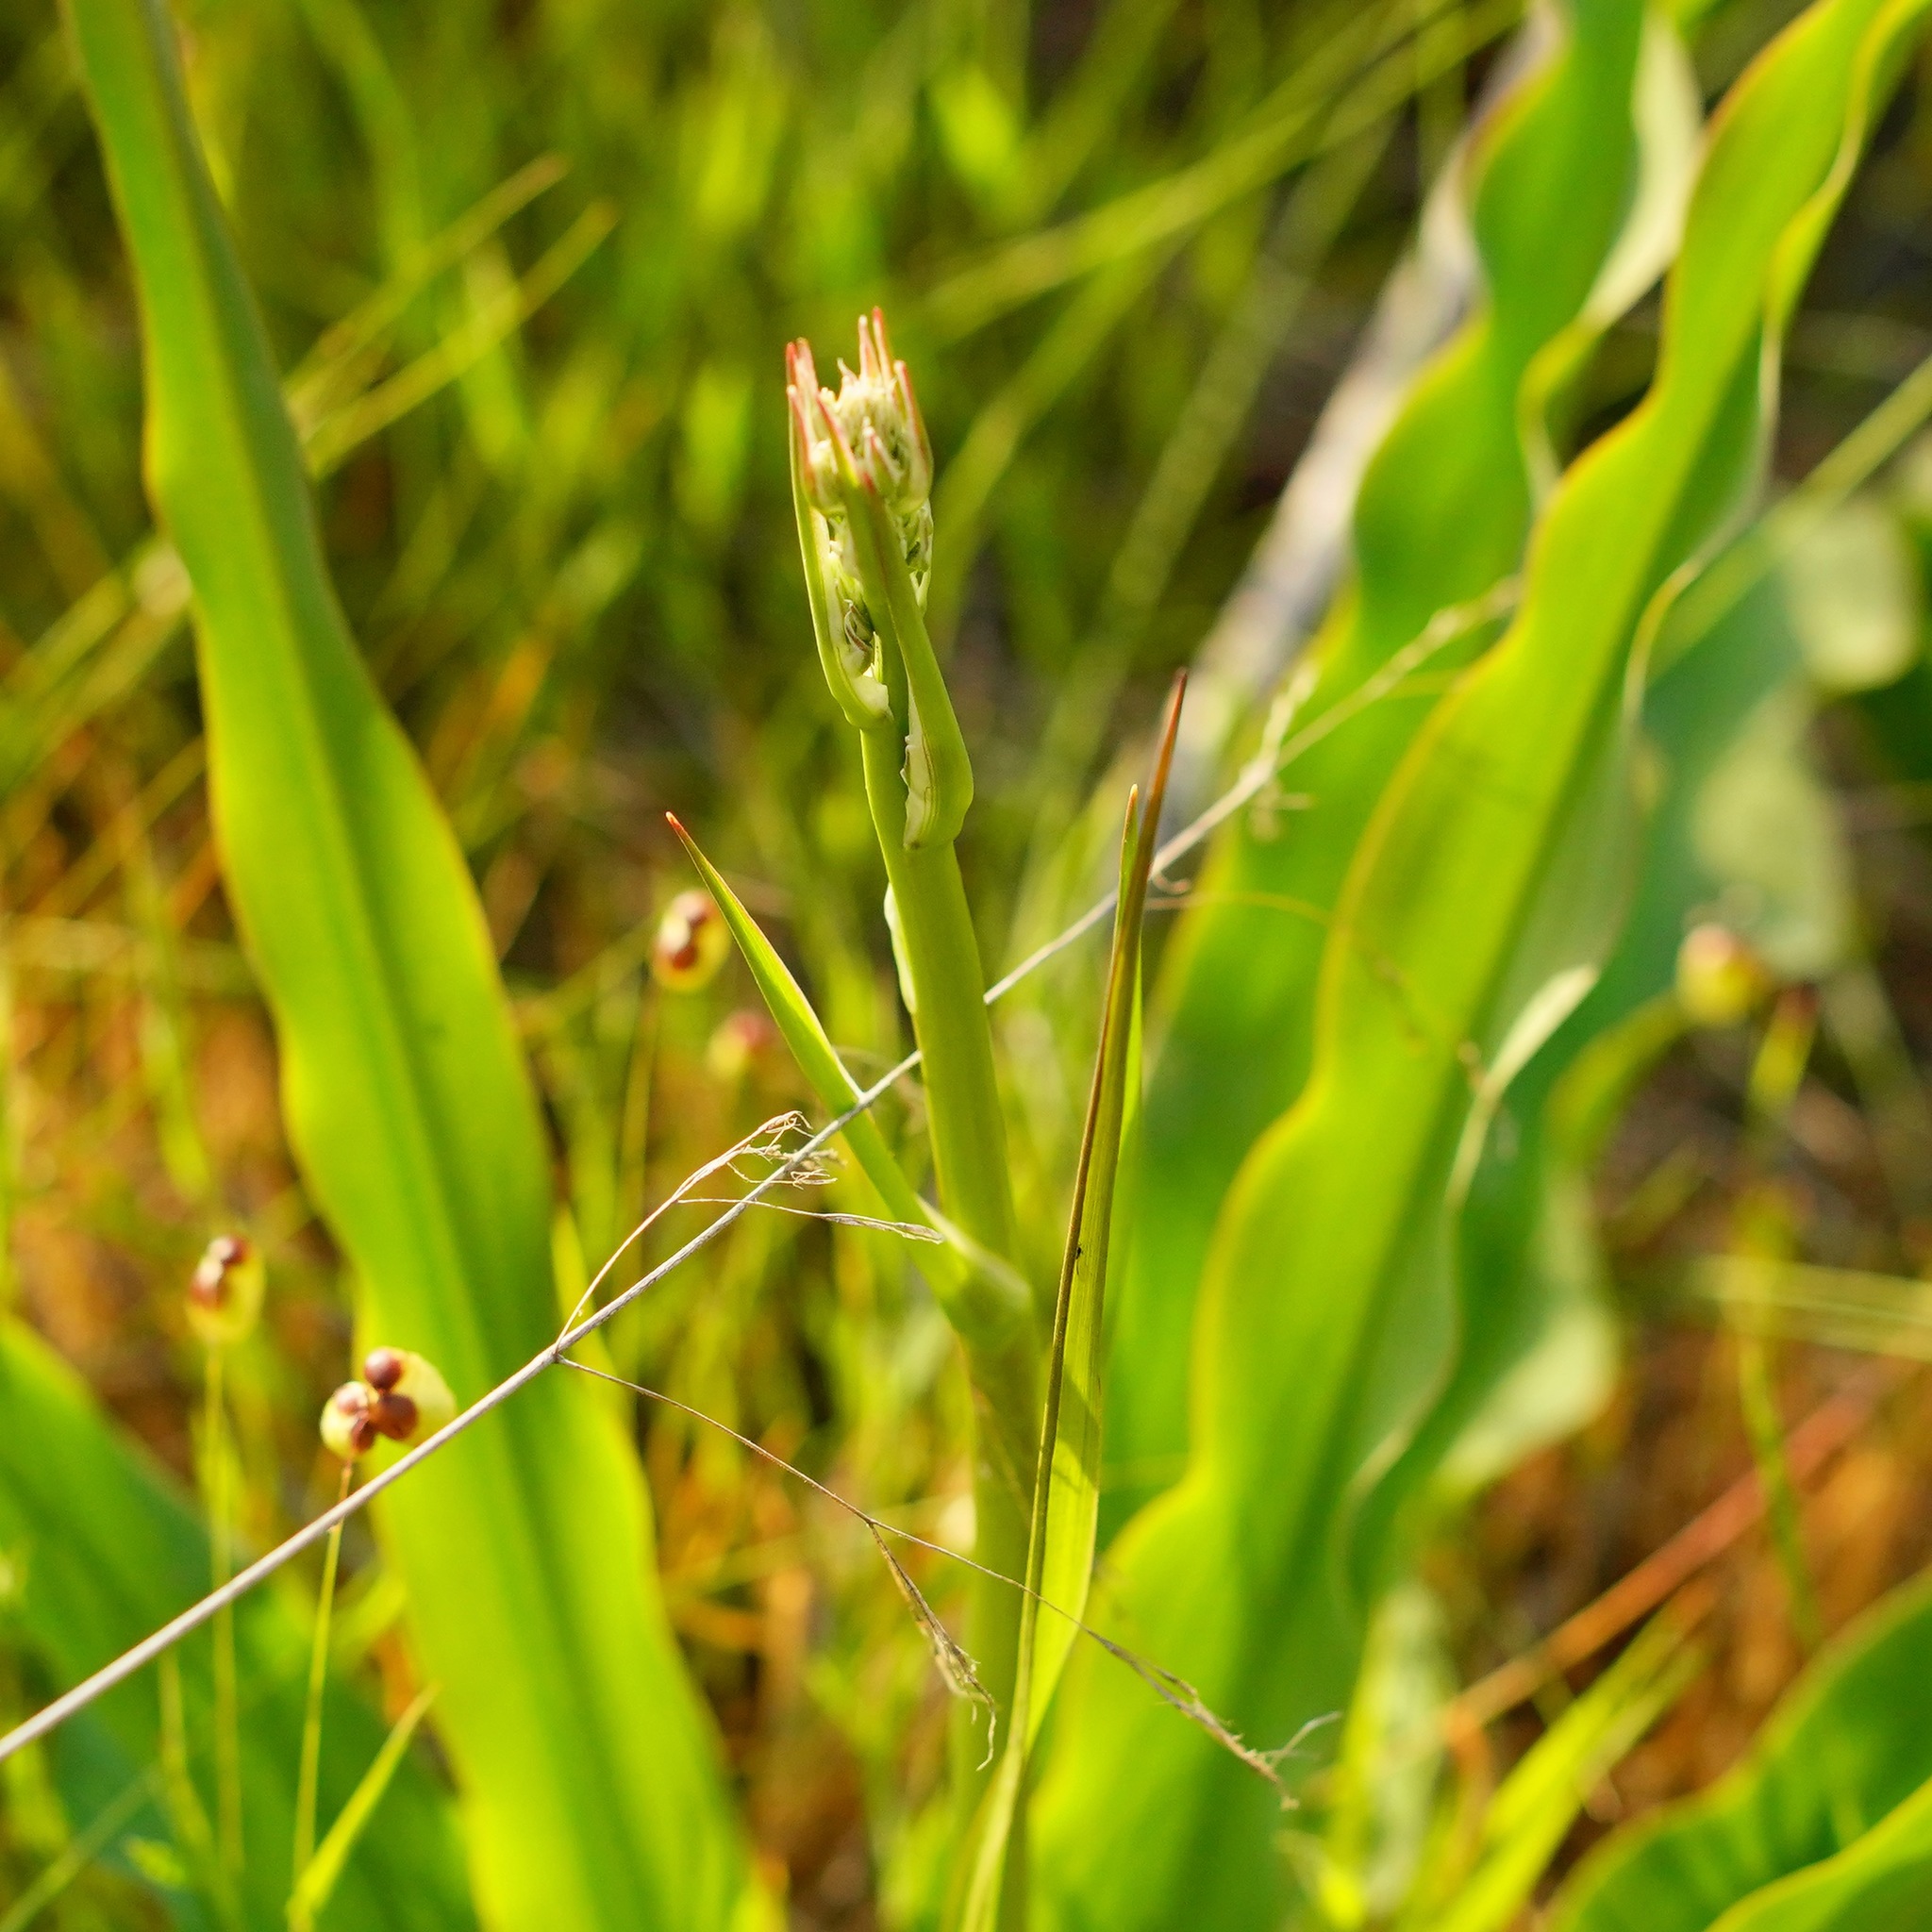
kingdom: Plantae
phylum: Tracheophyta
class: Liliopsida
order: Asparagales
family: Asparagaceae
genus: Chlorogalum
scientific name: Chlorogalum pomeridianum
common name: Amole
